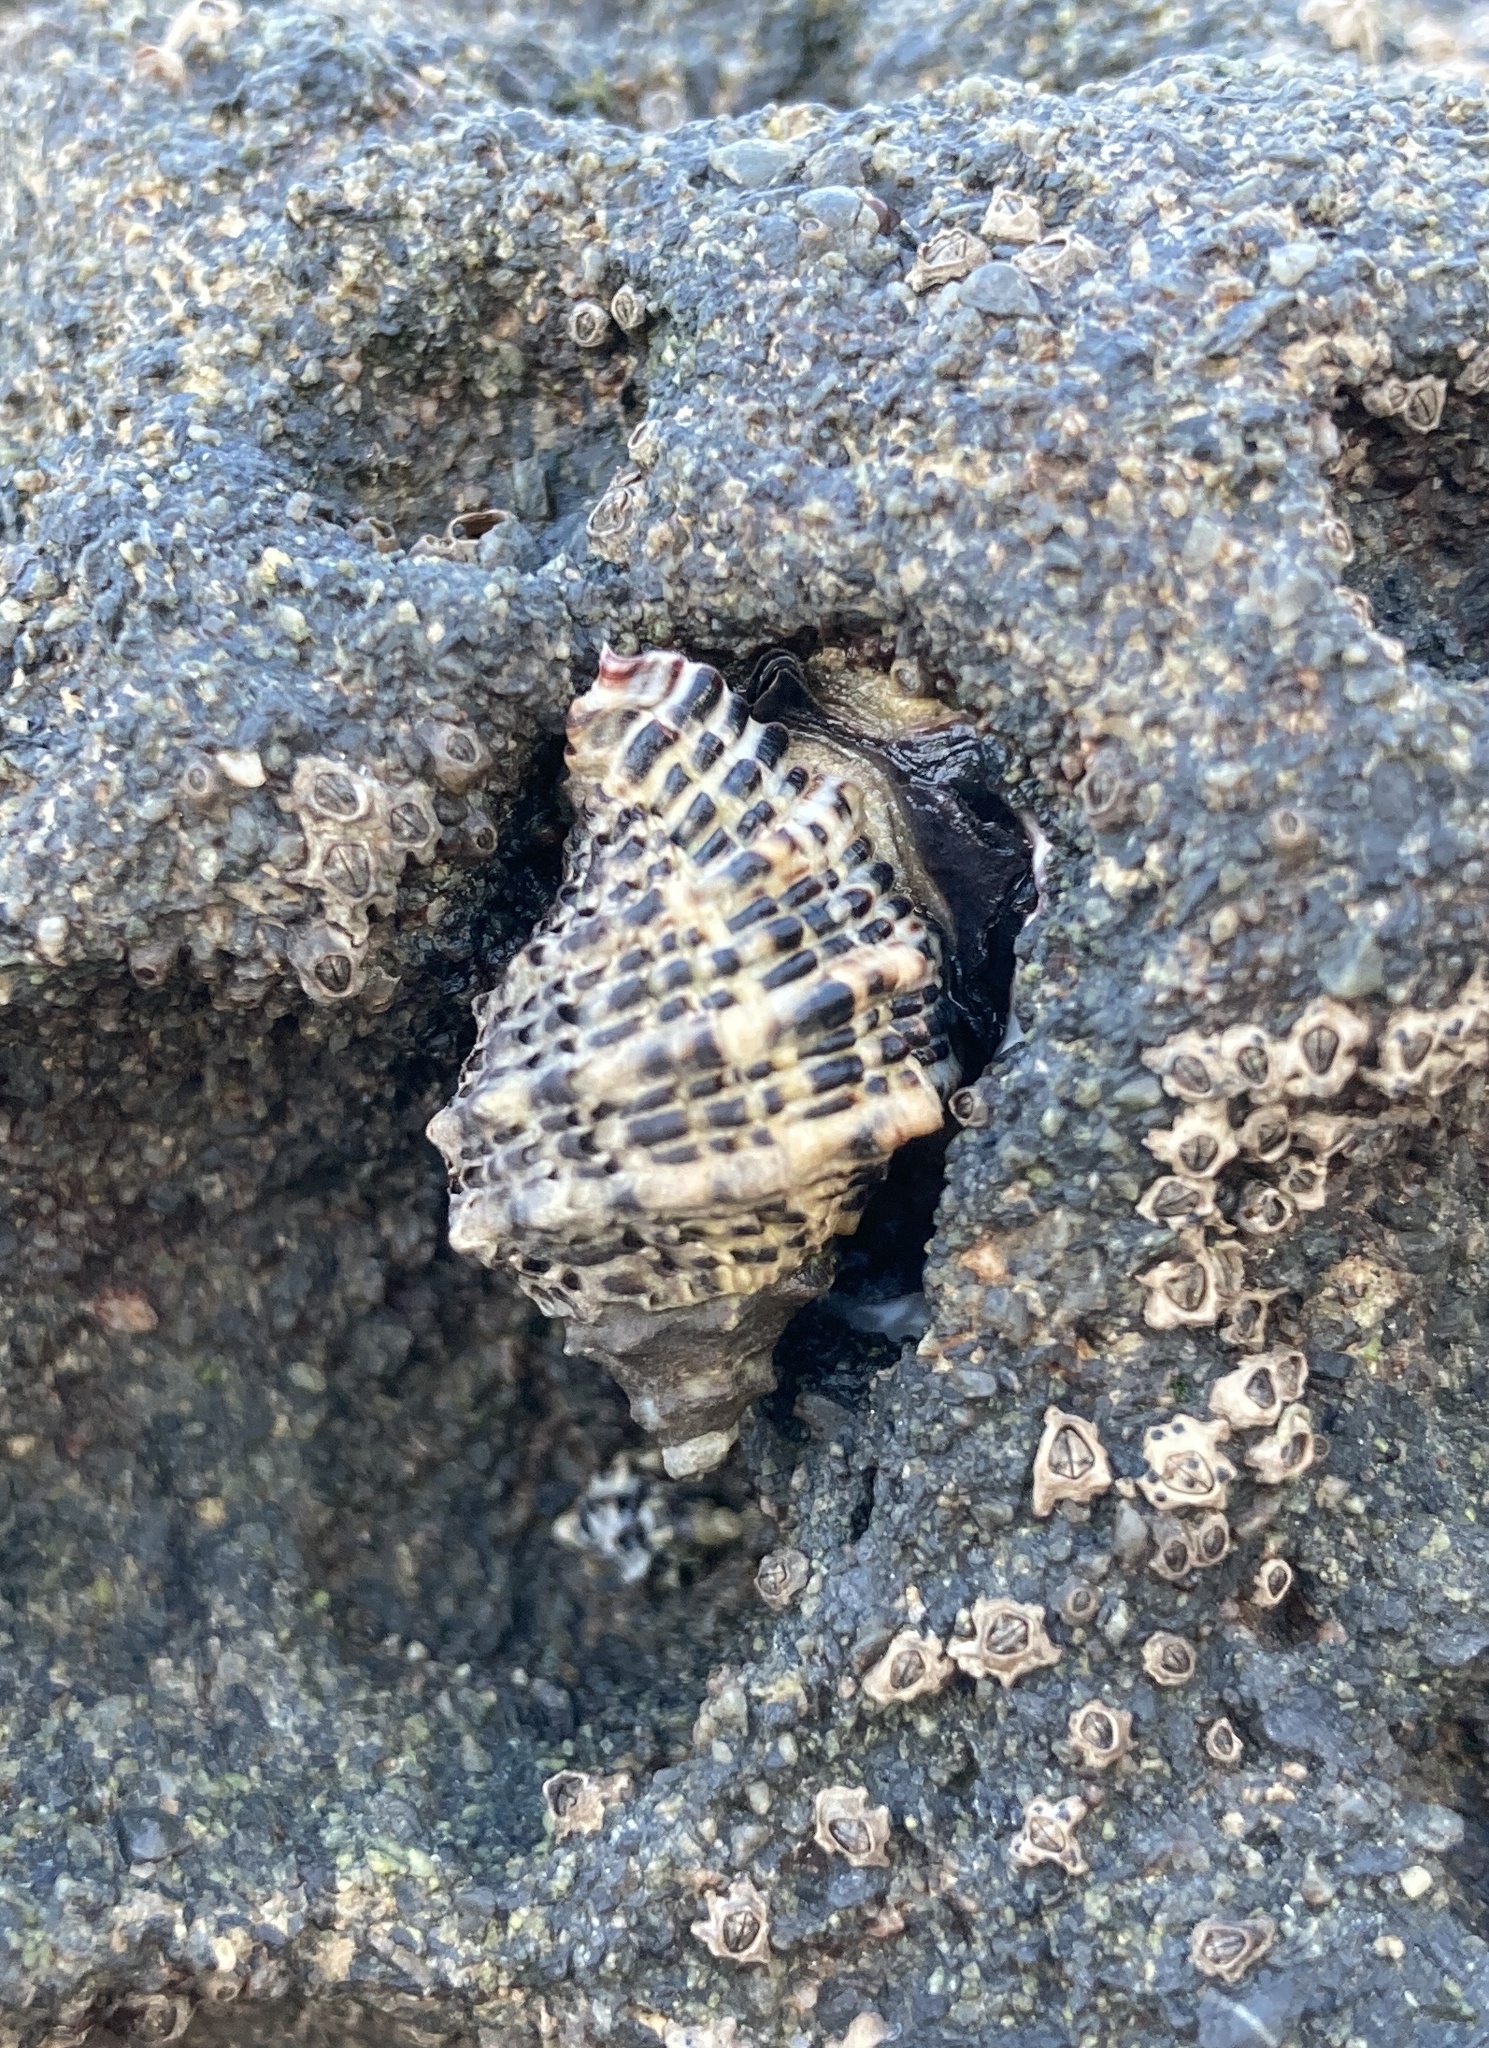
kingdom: Animalia
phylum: Mollusca
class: Gastropoda
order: Neogastropoda
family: Muricidae
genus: Haustrum
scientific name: Haustrum scobina
